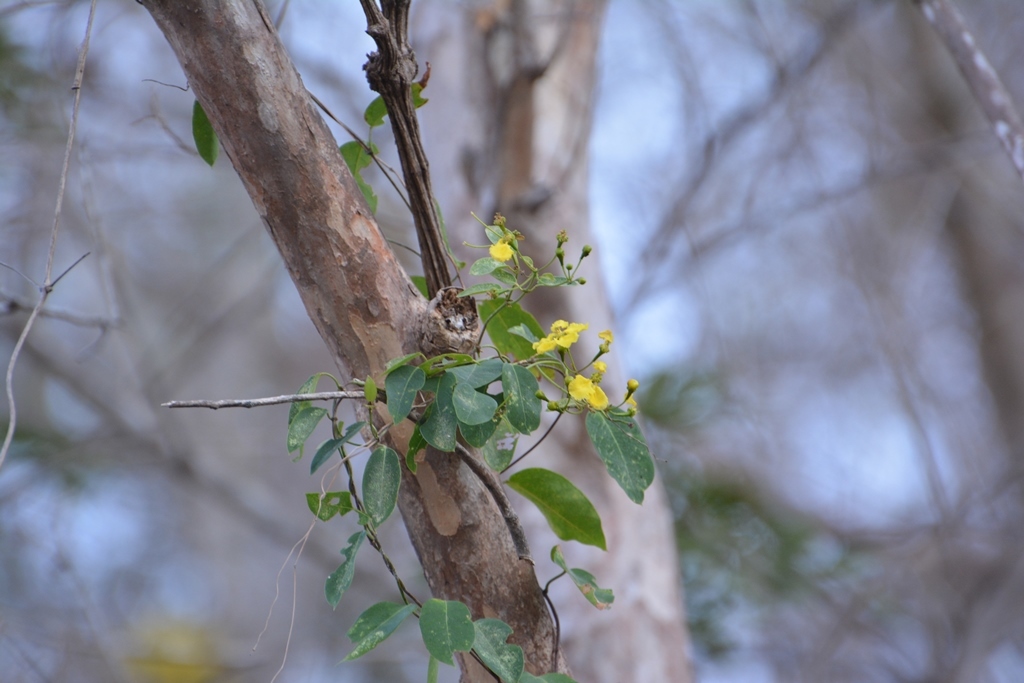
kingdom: Plantae
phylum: Tracheophyta
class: Magnoliopsida
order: Malpighiales
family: Malpighiaceae
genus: Stigmaphyllon
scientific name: Stigmaphyllon ellipticum
